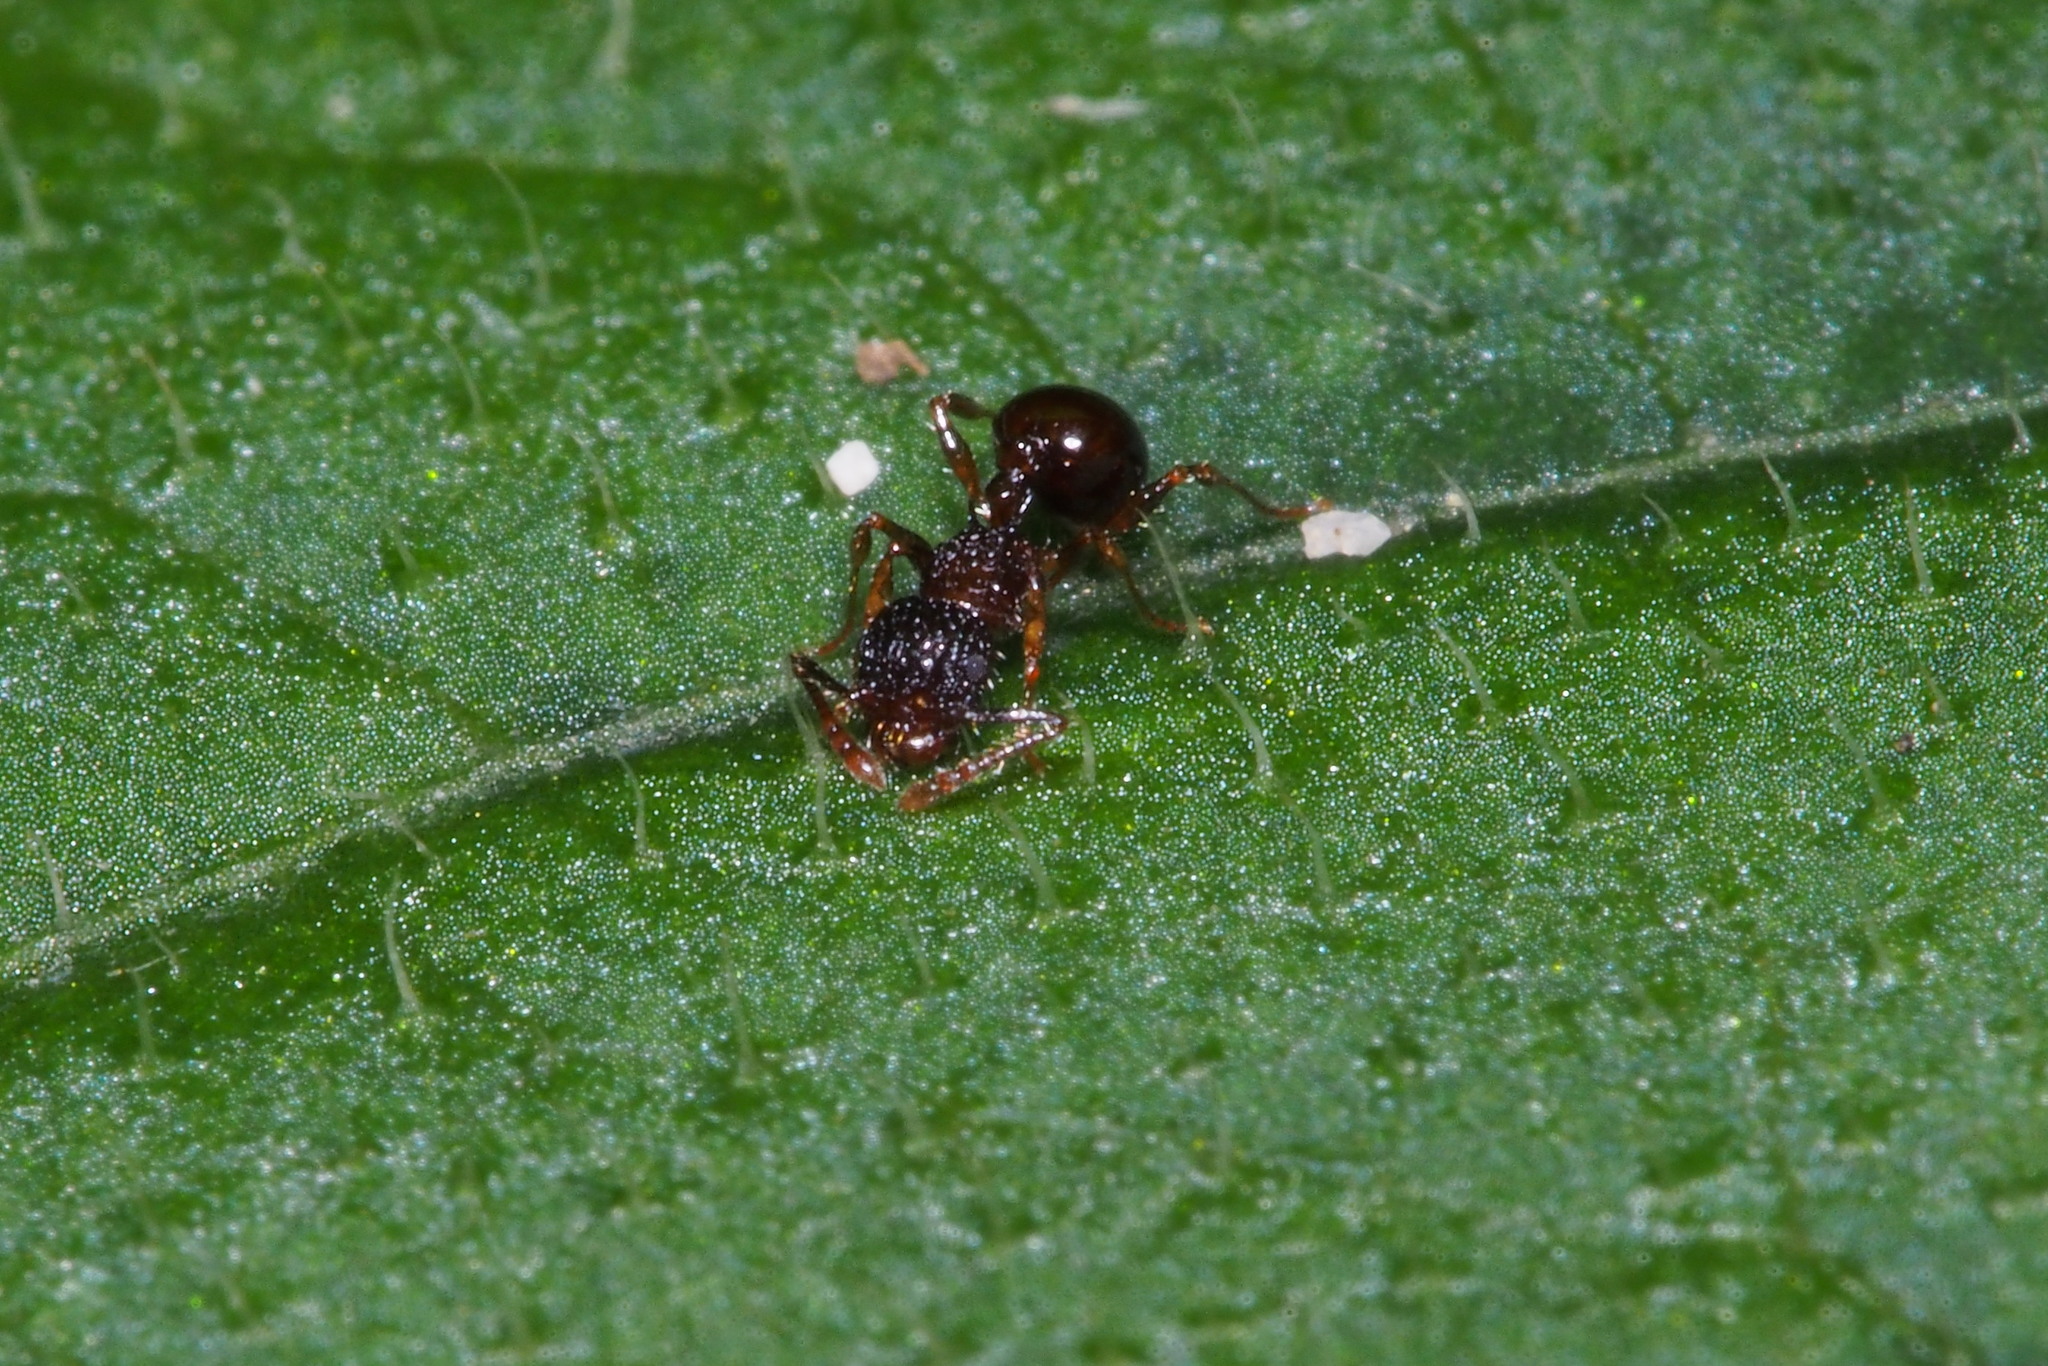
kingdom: Animalia
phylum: Arthropoda
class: Insecta
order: Hymenoptera
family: Formicidae
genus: Pristomyrmex
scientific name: Pristomyrmex punctatus
